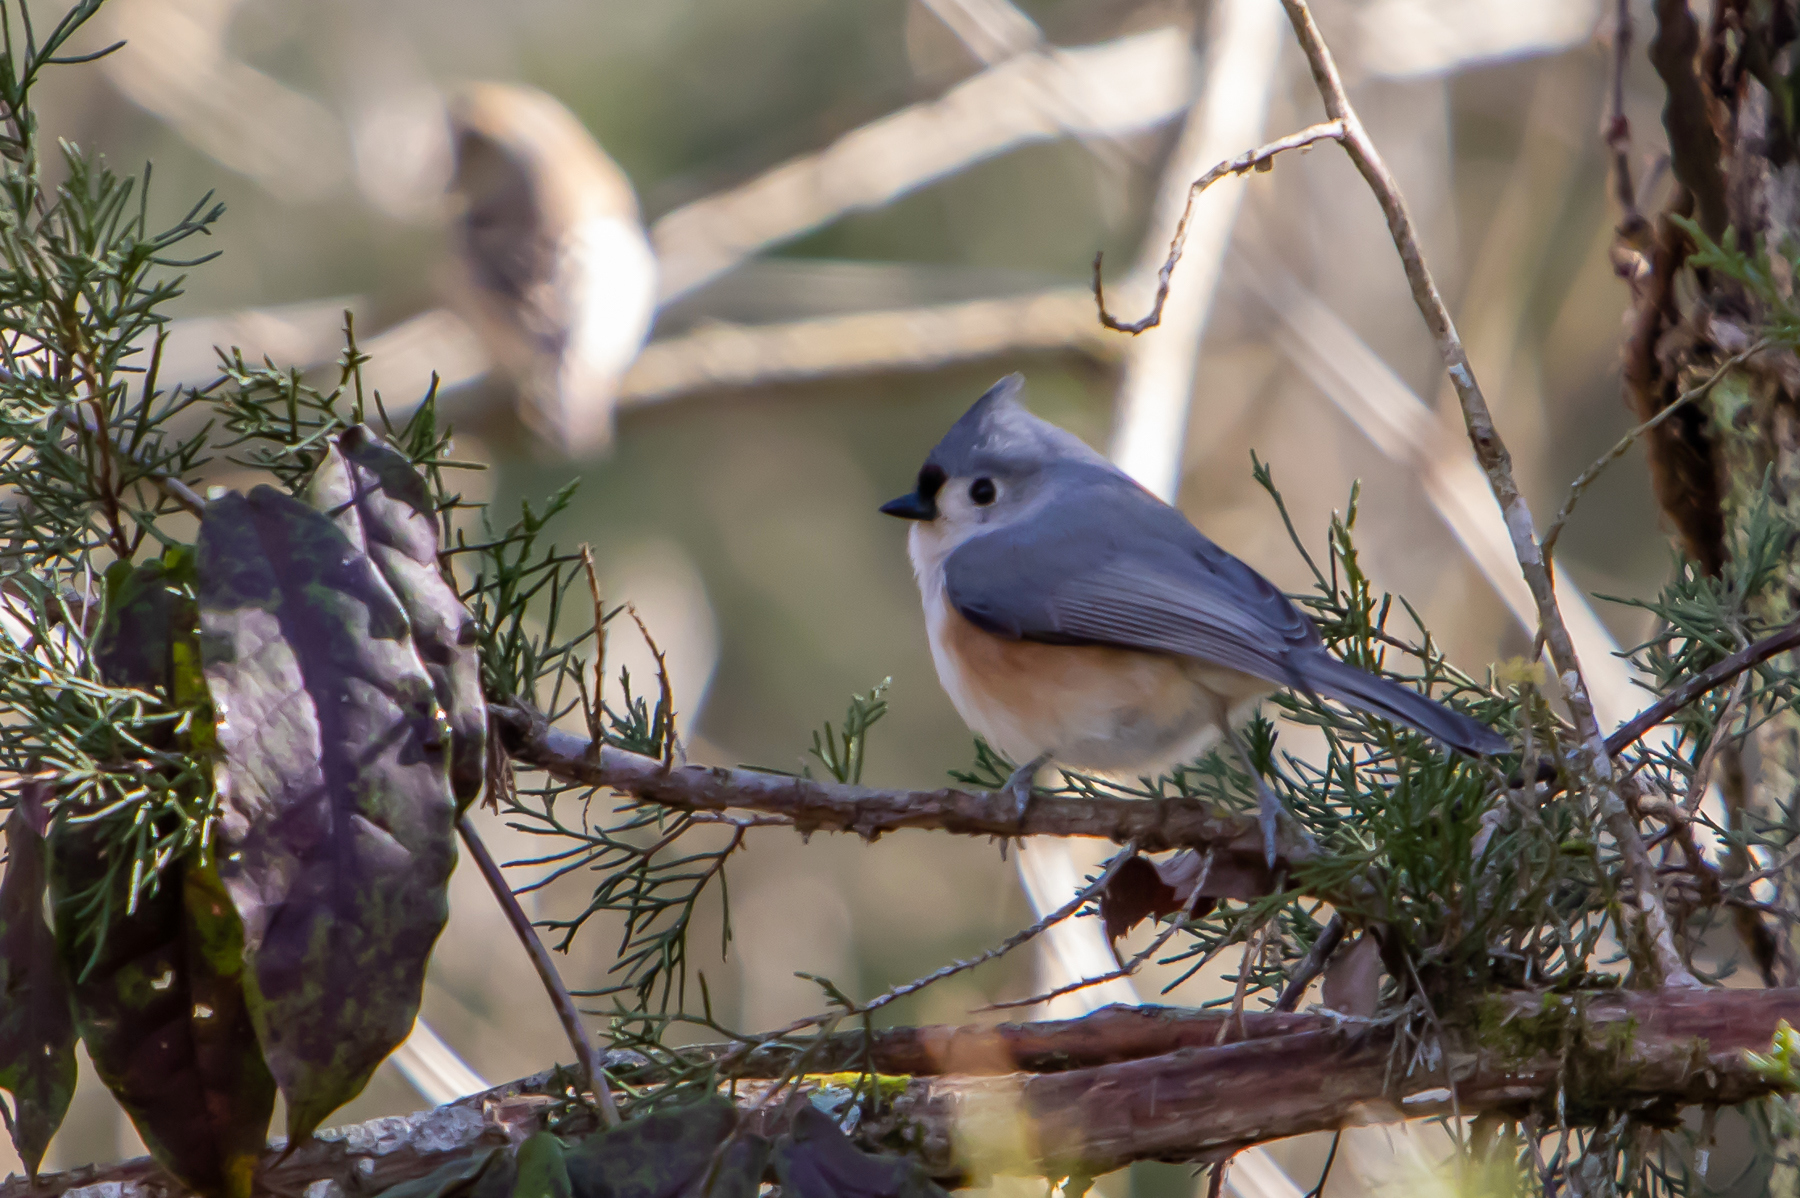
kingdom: Animalia
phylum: Chordata
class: Aves
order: Passeriformes
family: Paridae
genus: Baeolophus
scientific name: Baeolophus bicolor
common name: Tufted titmouse
